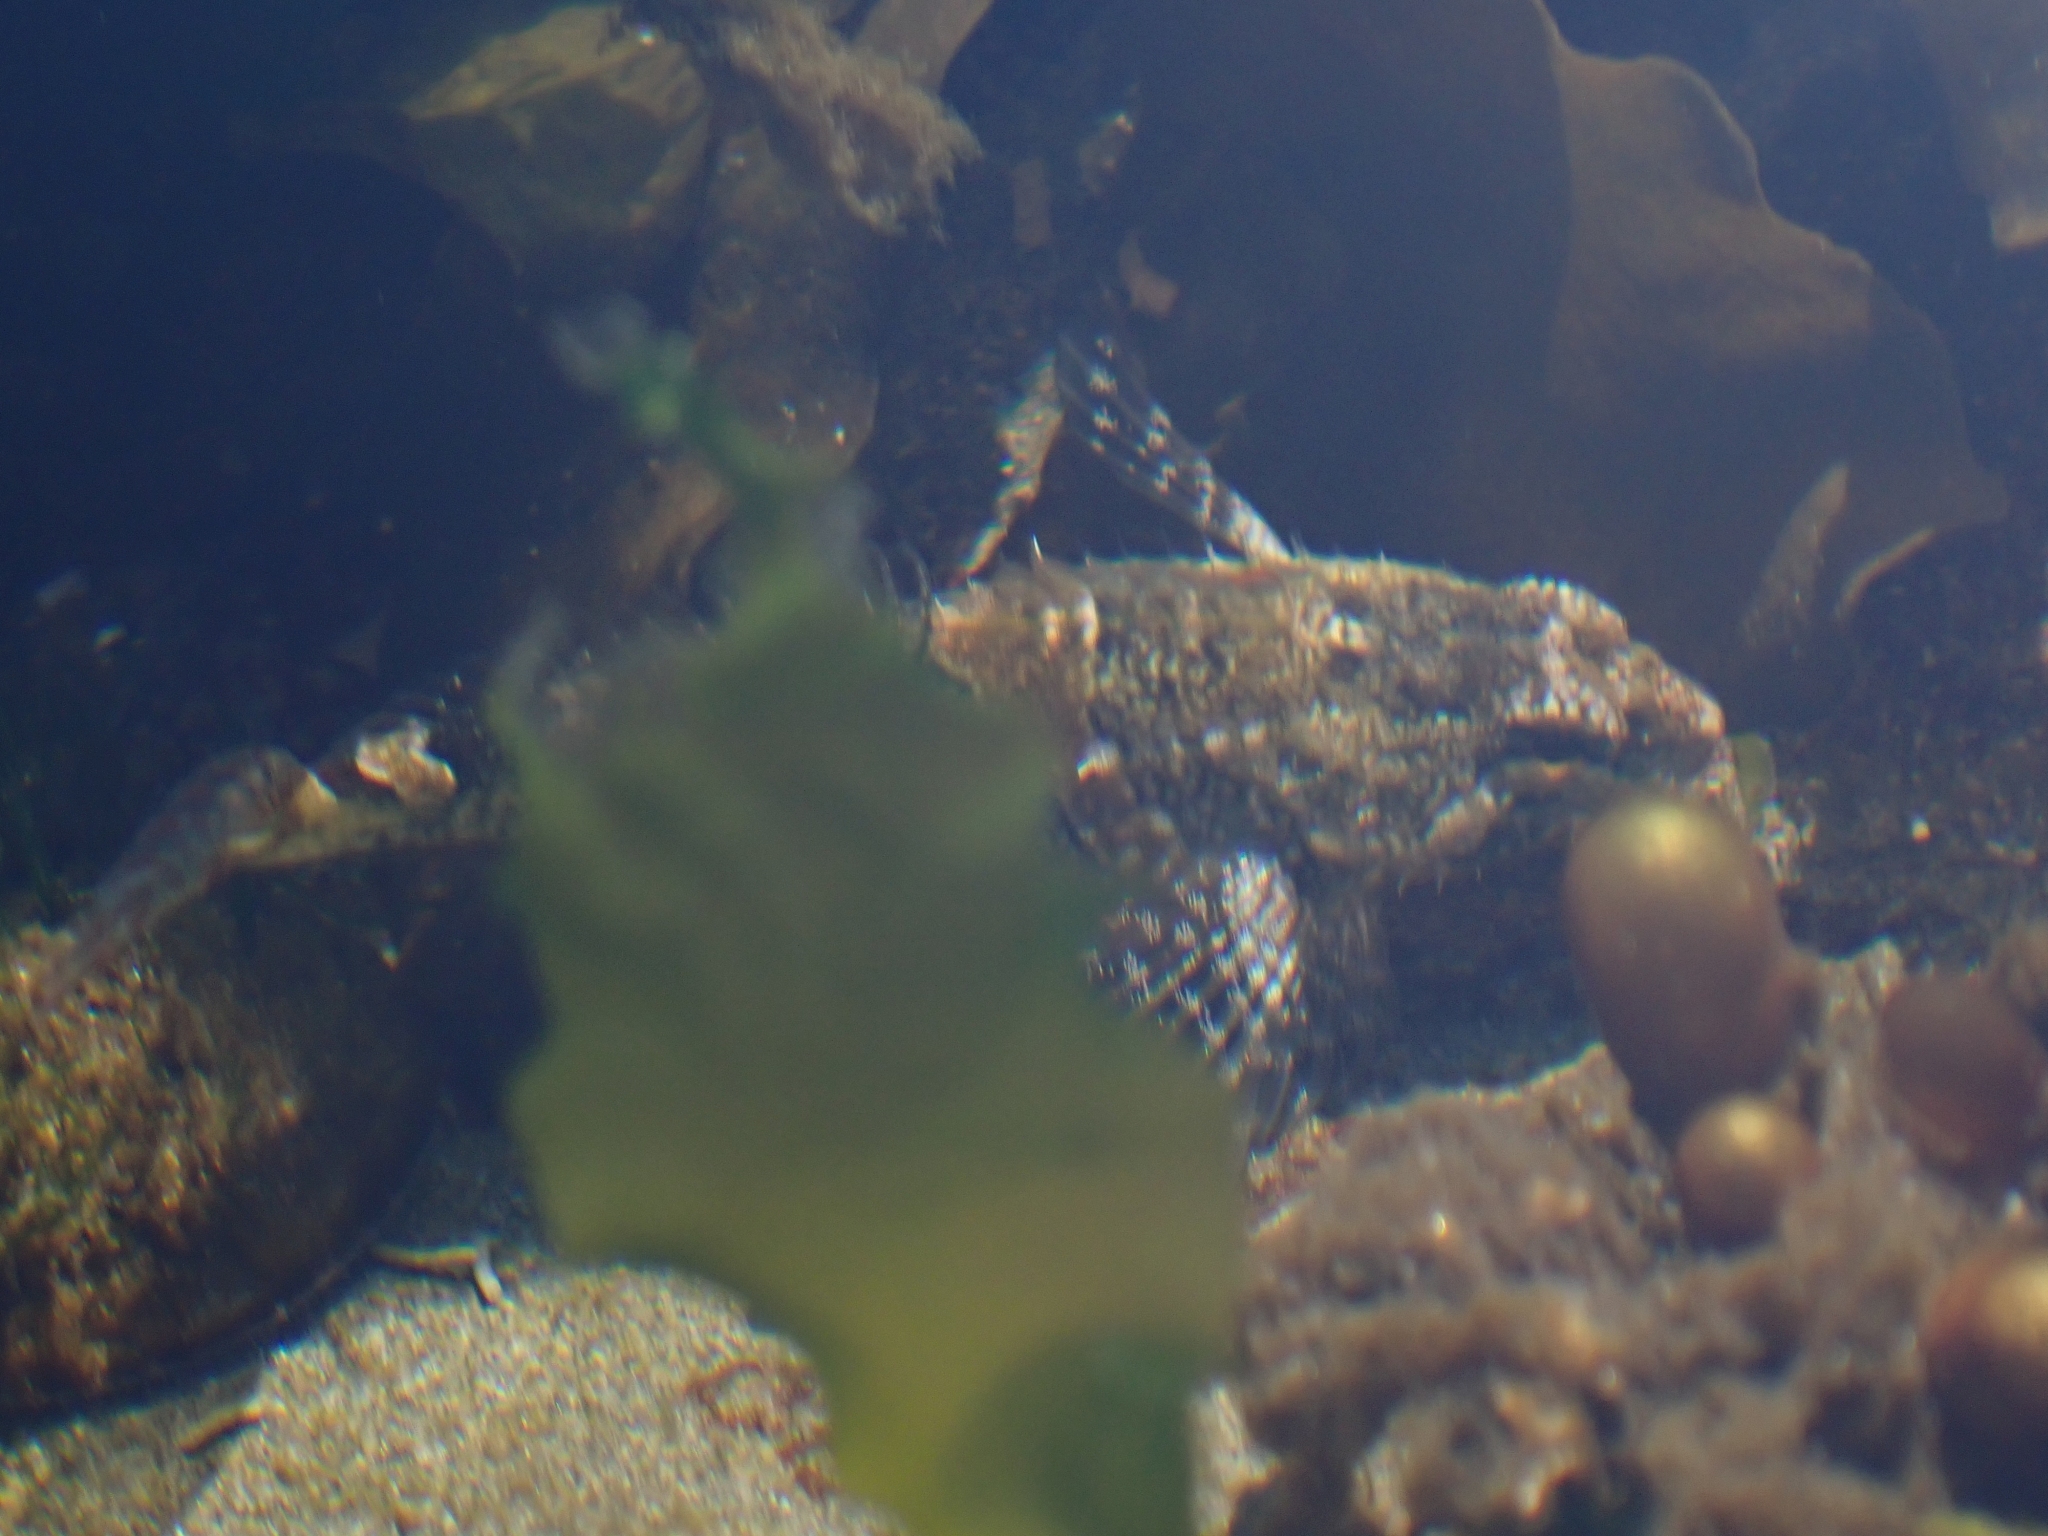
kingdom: Animalia
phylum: Chordata
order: Scorpaeniformes
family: Cottidae
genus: Oligocottus
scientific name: Oligocottus maculosus
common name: Tidepool sculpin
